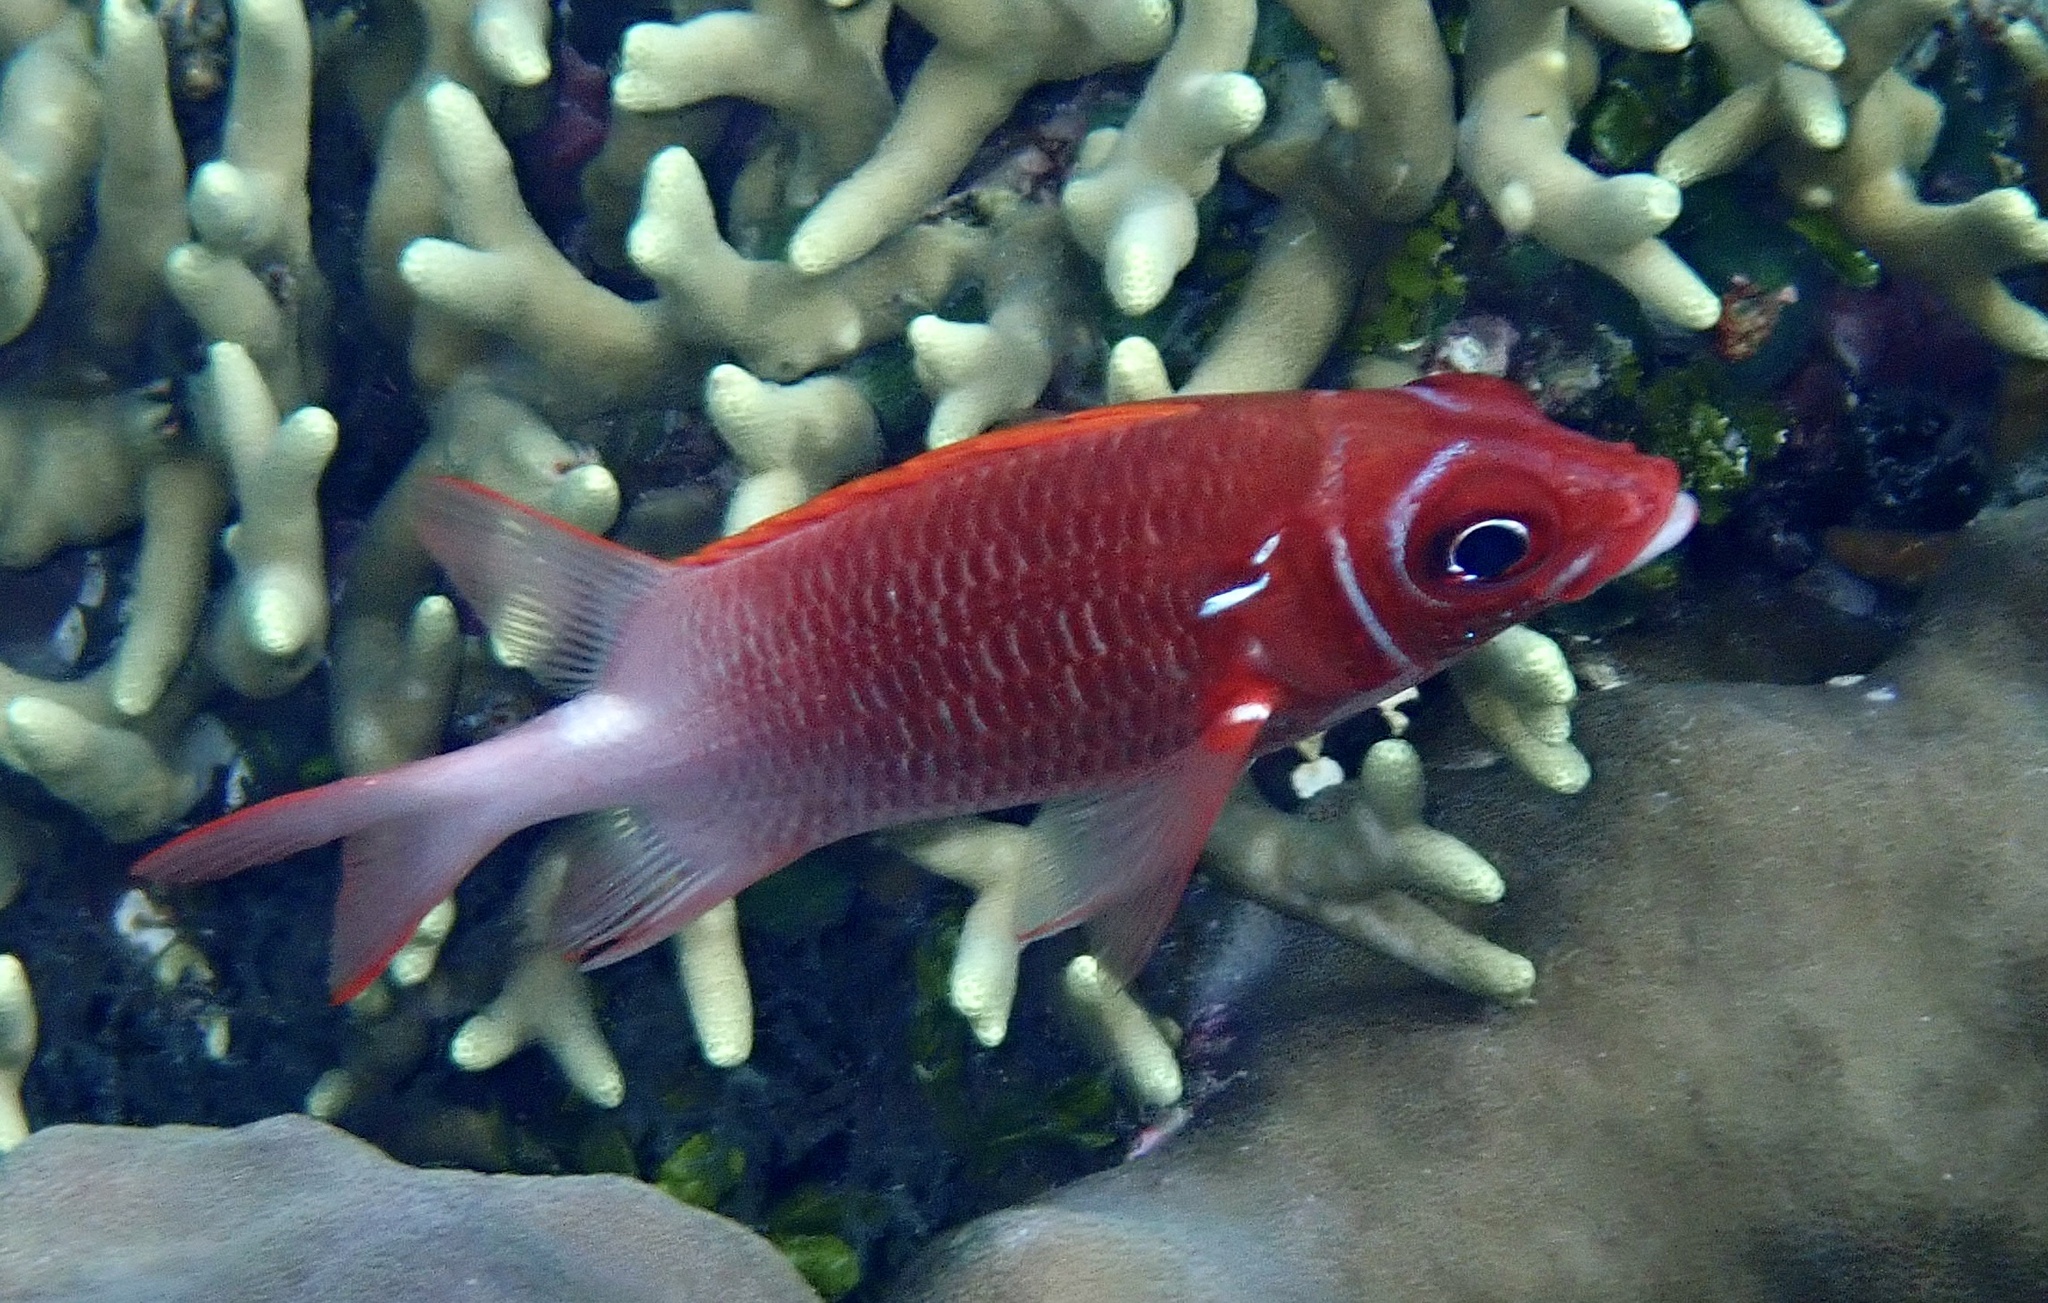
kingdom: Animalia
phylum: Chordata
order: Beryciformes
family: Holocentridae
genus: Sargocentron
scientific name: Sargocentron caudimaculatum
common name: Fanfin soldier
